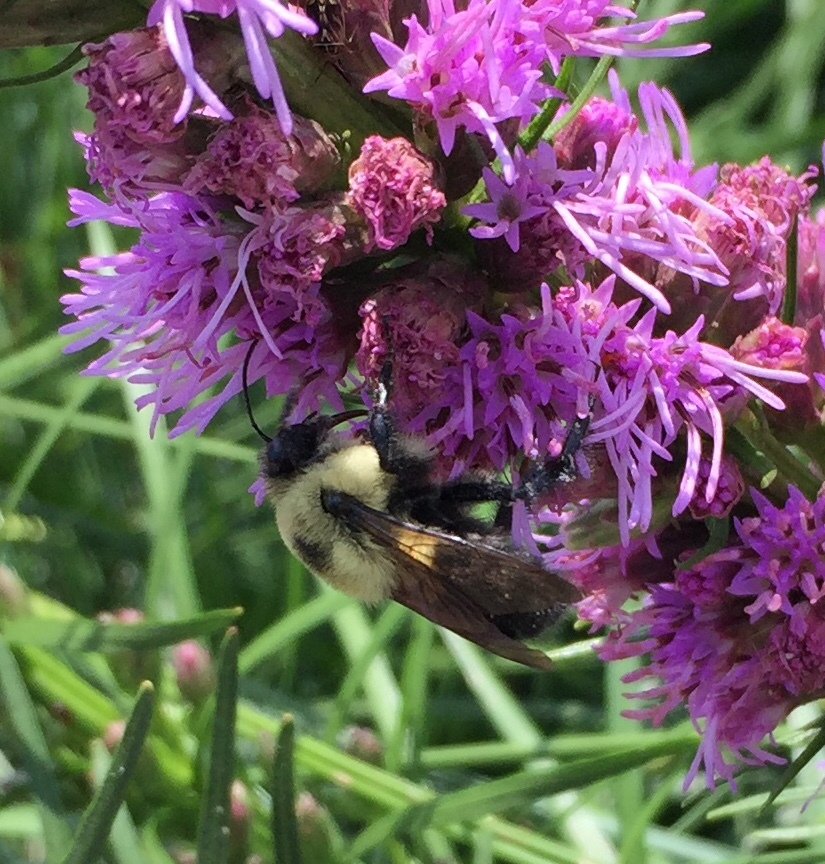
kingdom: Animalia
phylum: Arthropoda
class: Insecta
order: Hymenoptera
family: Apidae
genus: Bombus
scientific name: Bombus griseocollis
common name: Brown-belted bumble bee
